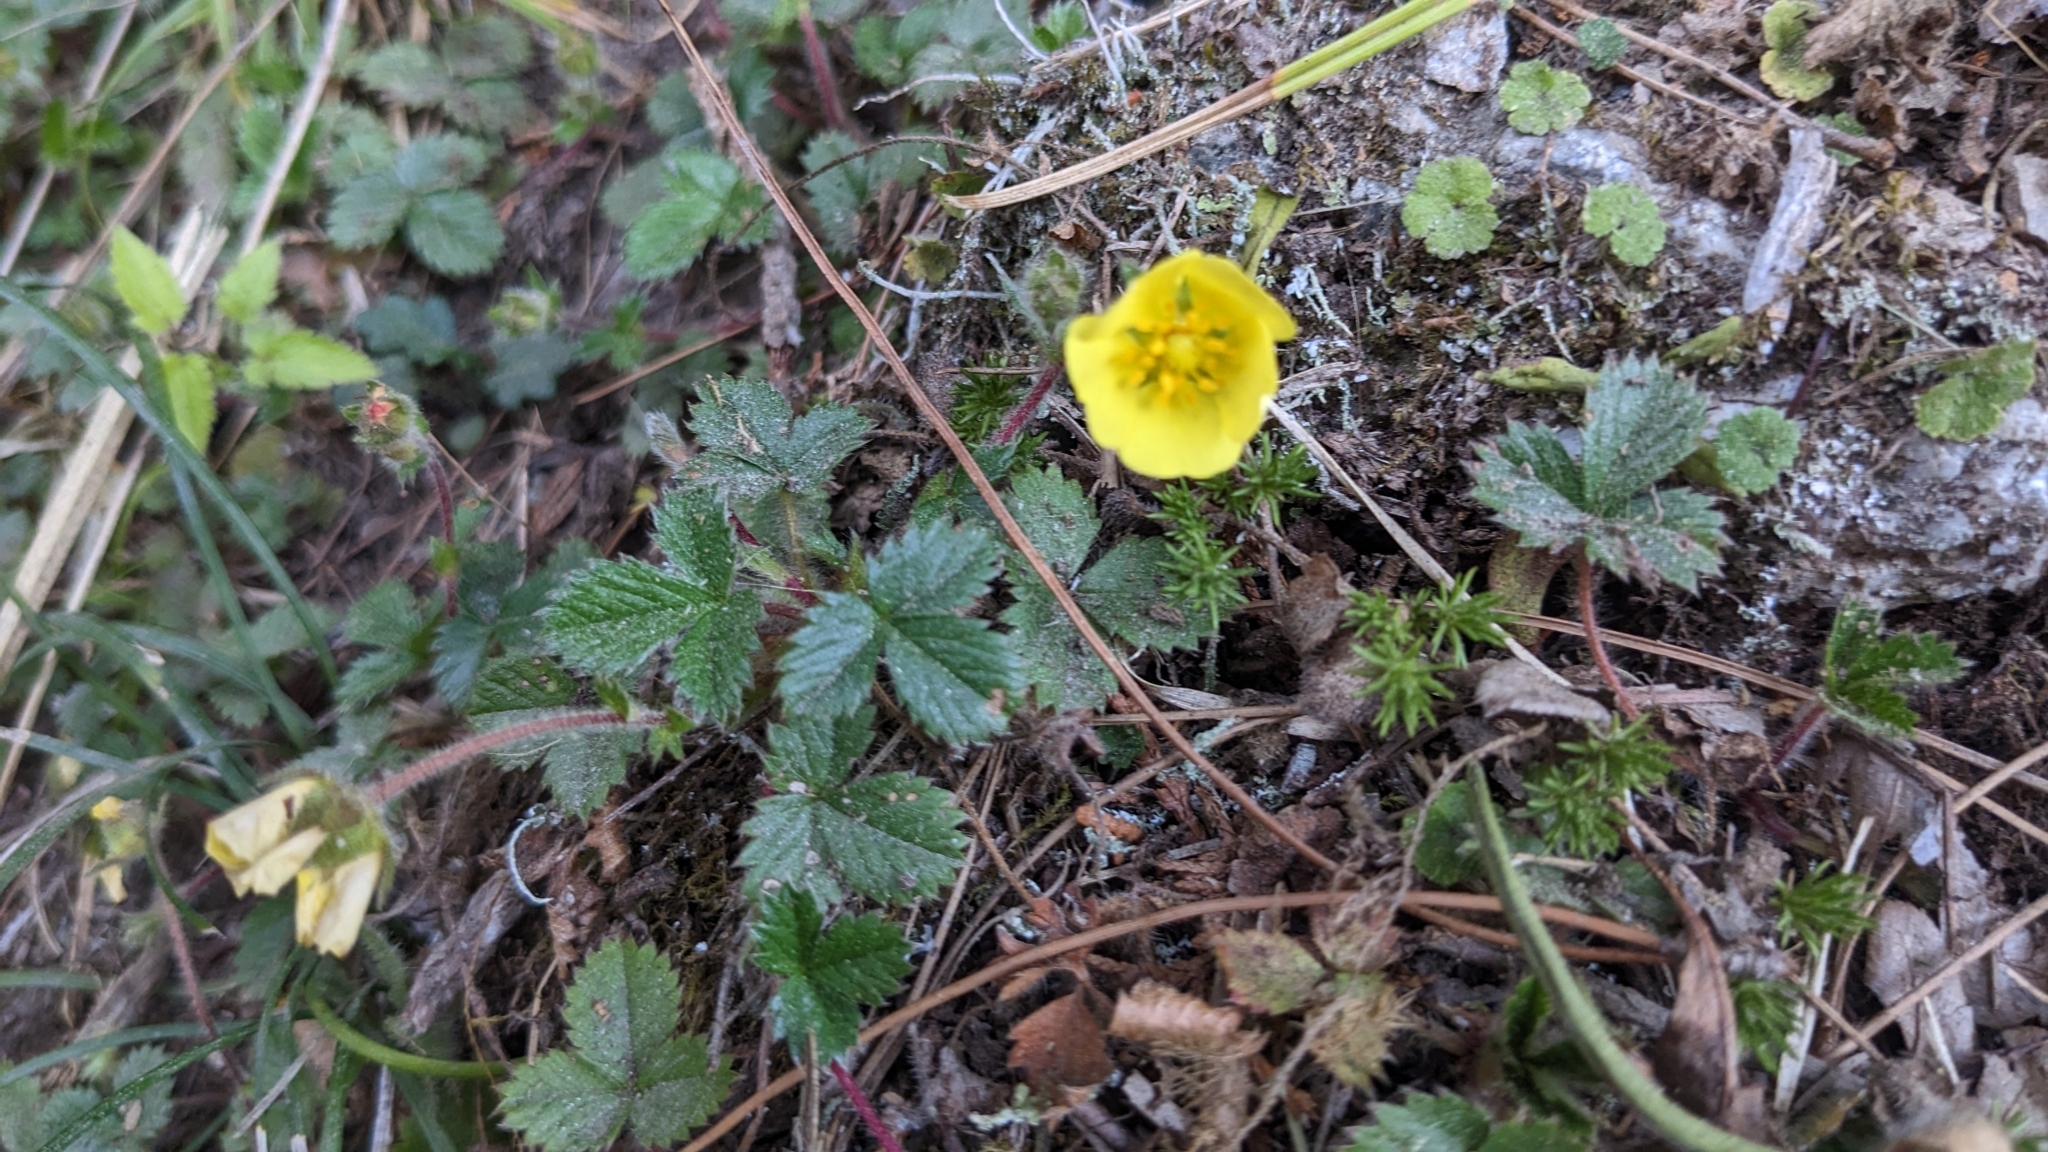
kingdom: Plantae
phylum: Tracheophyta
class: Magnoliopsida
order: Rosales
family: Rosaceae
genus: Potentilla
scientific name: Potentilla matsumurae
